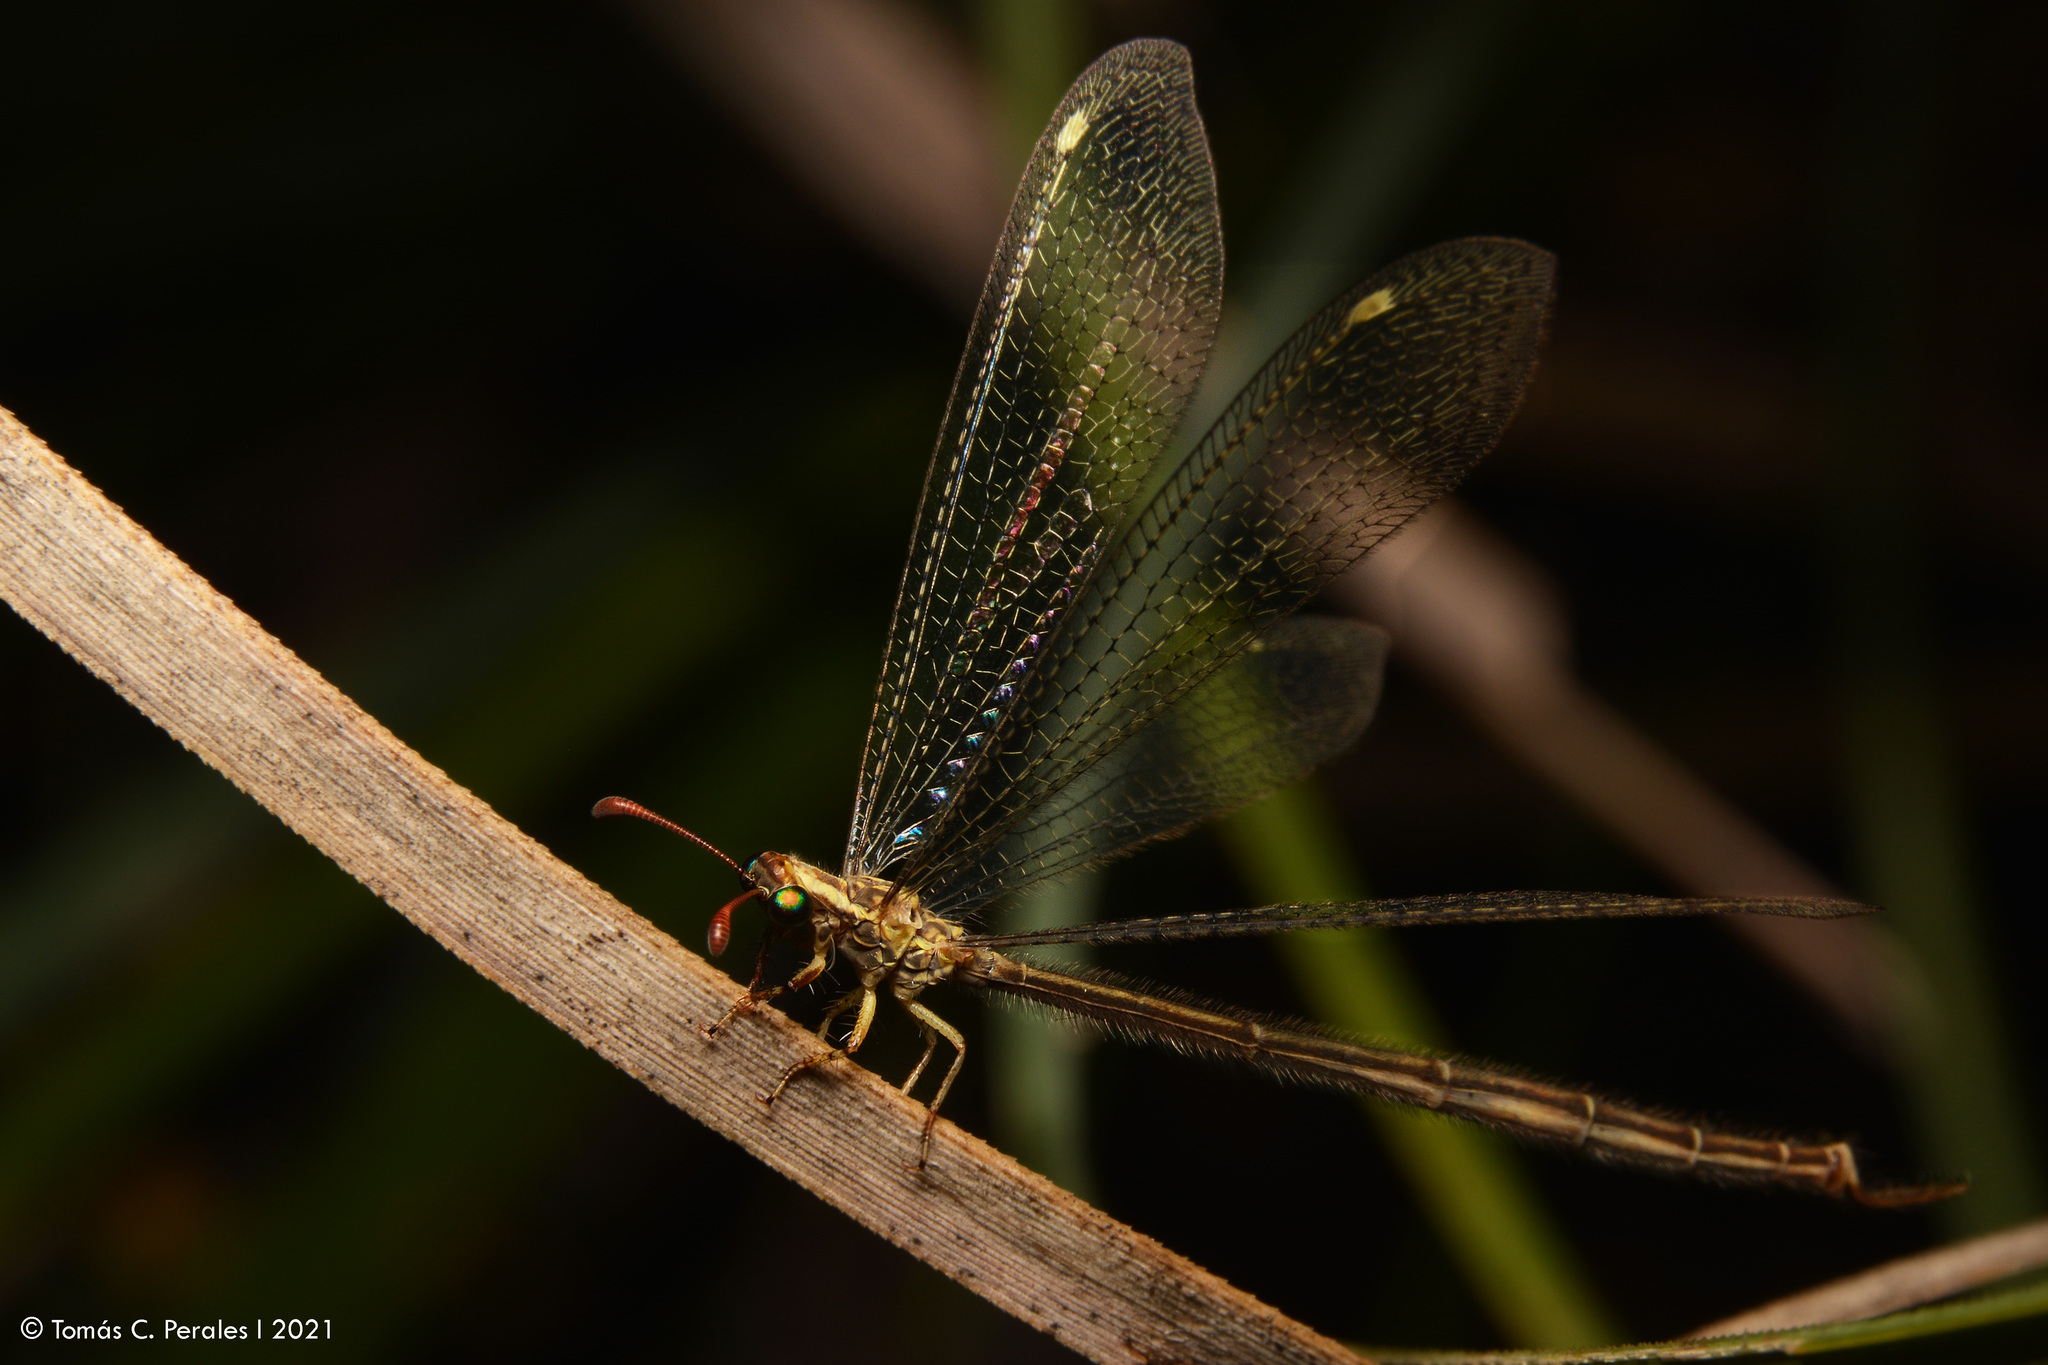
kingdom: Animalia
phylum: Arthropoda
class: Insecta
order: Neuroptera
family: Myrmeleontidae
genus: Argentoleon
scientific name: Argentoleon irrigatus
